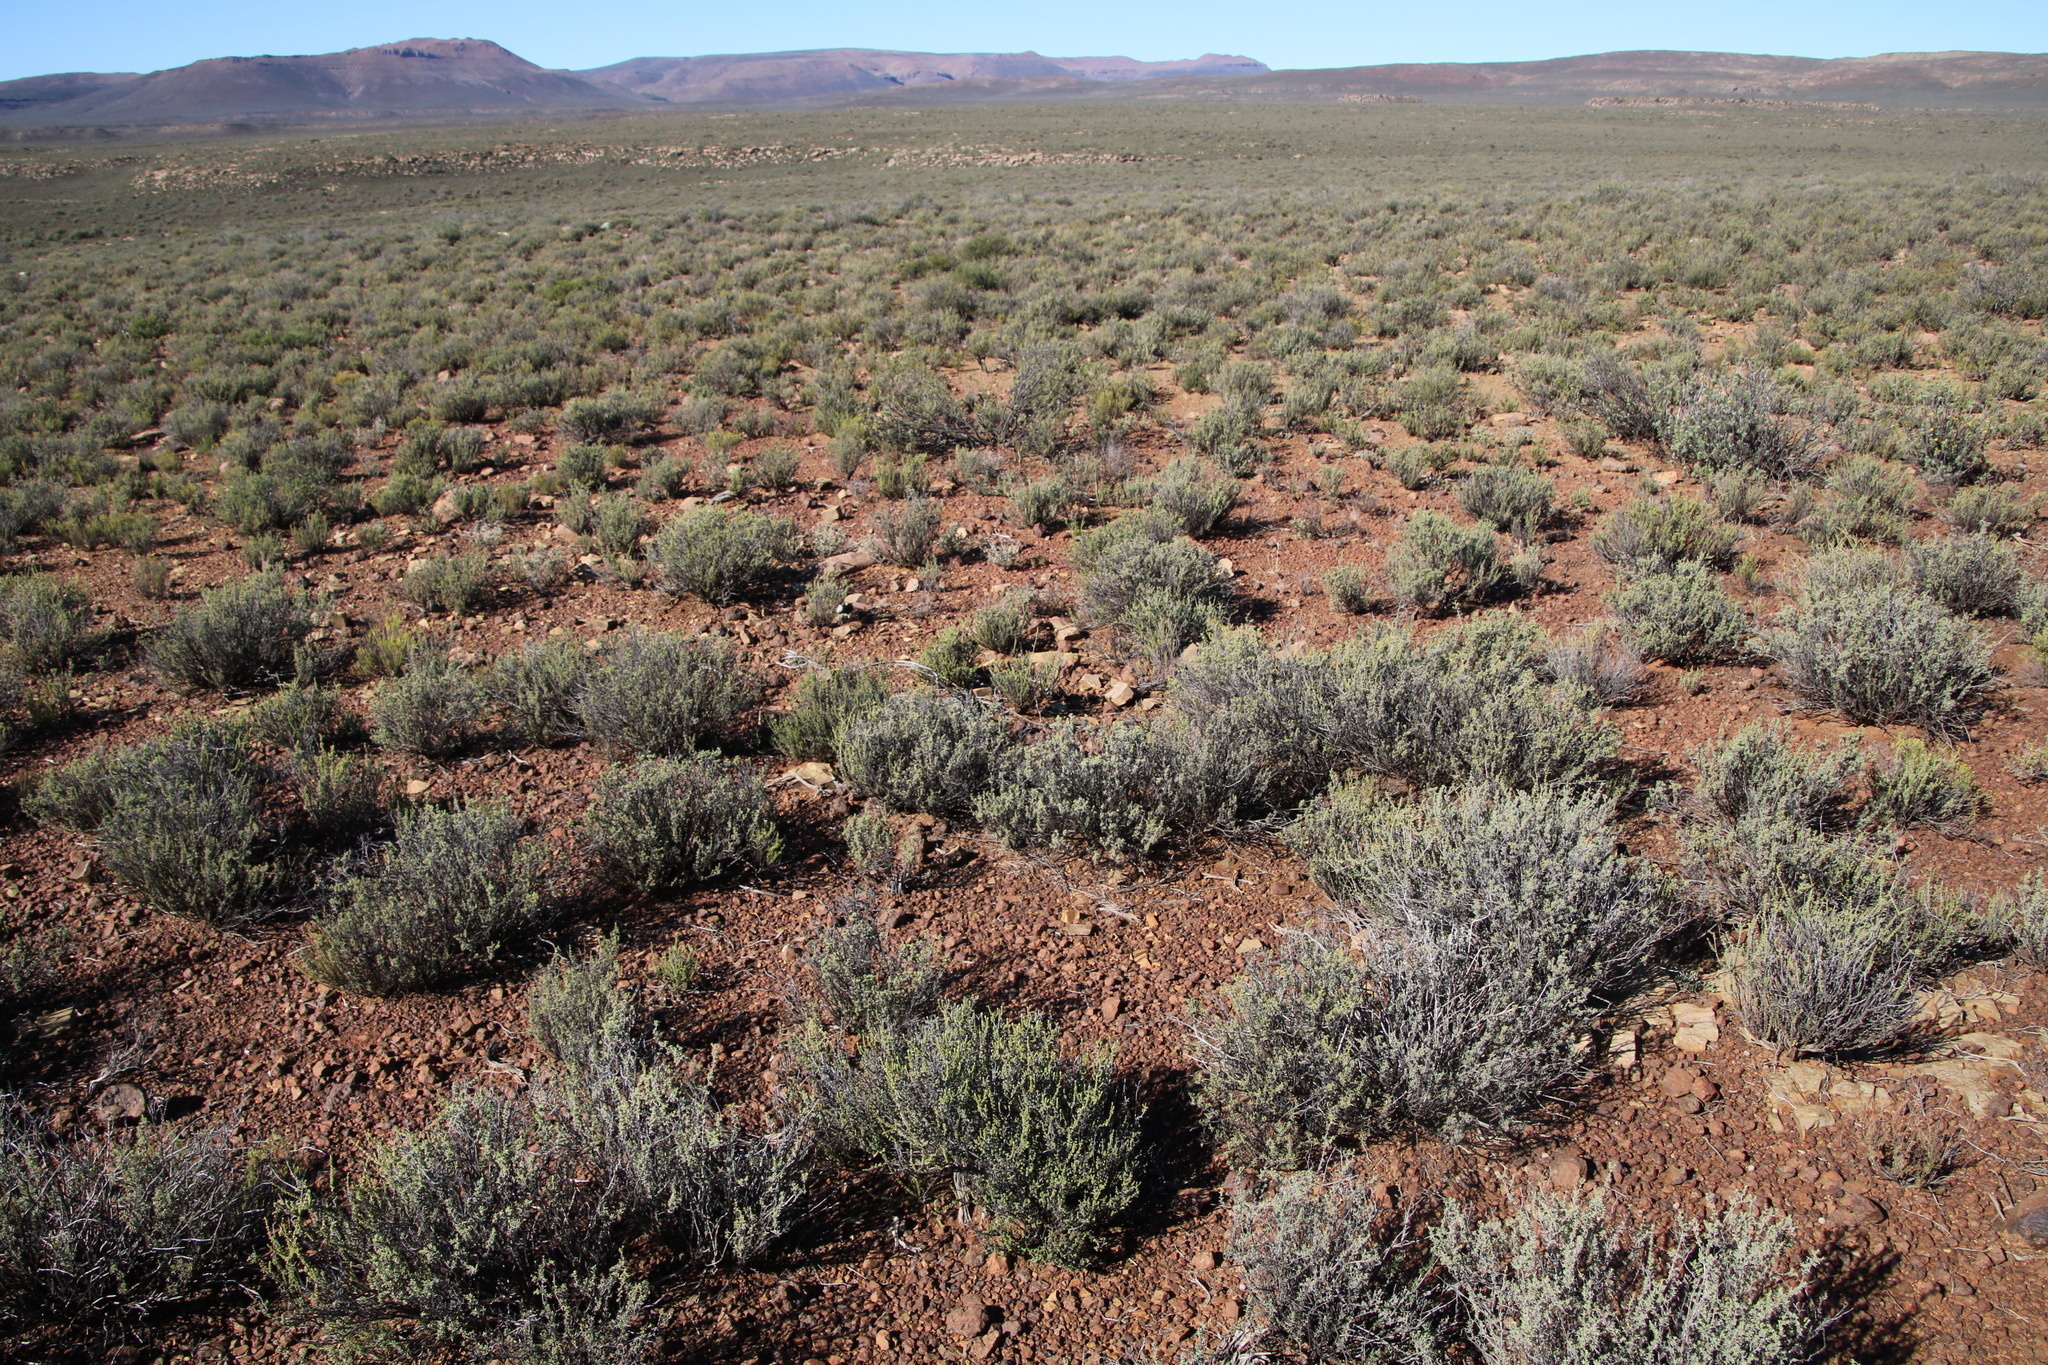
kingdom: Plantae
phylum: Tracheophyta
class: Magnoliopsida
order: Asterales
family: Asteraceae
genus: Pteronia
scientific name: Pteronia glomerata
